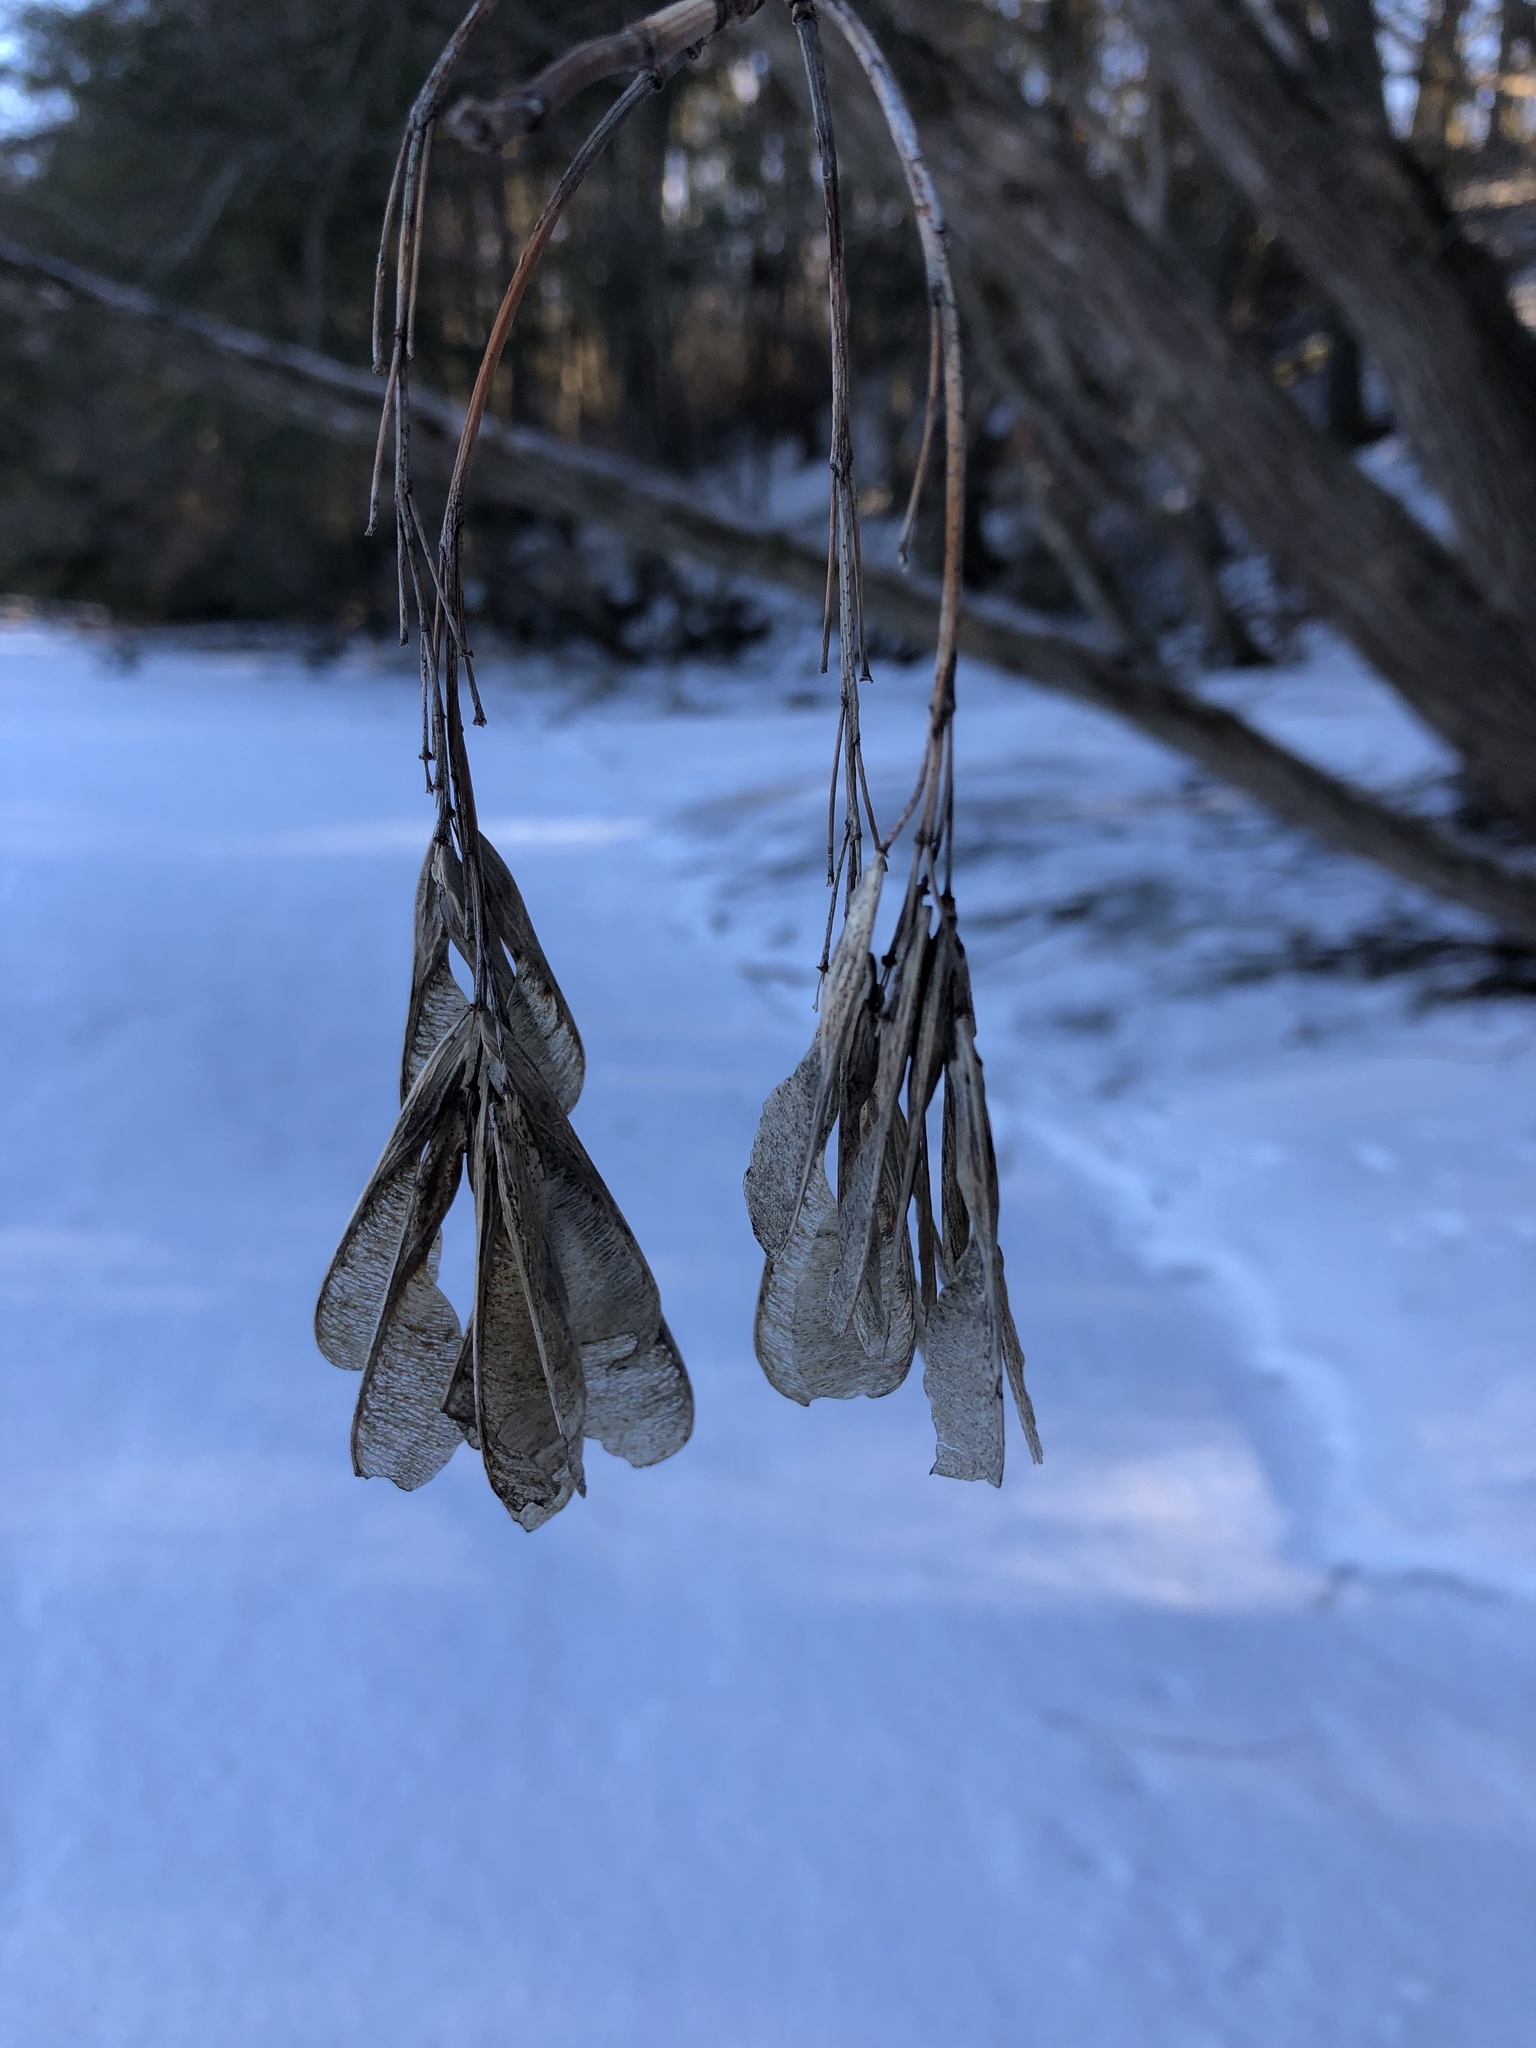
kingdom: Plantae
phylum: Tracheophyta
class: Magnoliopsida
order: Sapindales
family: Sapindaceae
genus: Acer
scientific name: Acer negundo
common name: Ashleaf maple
